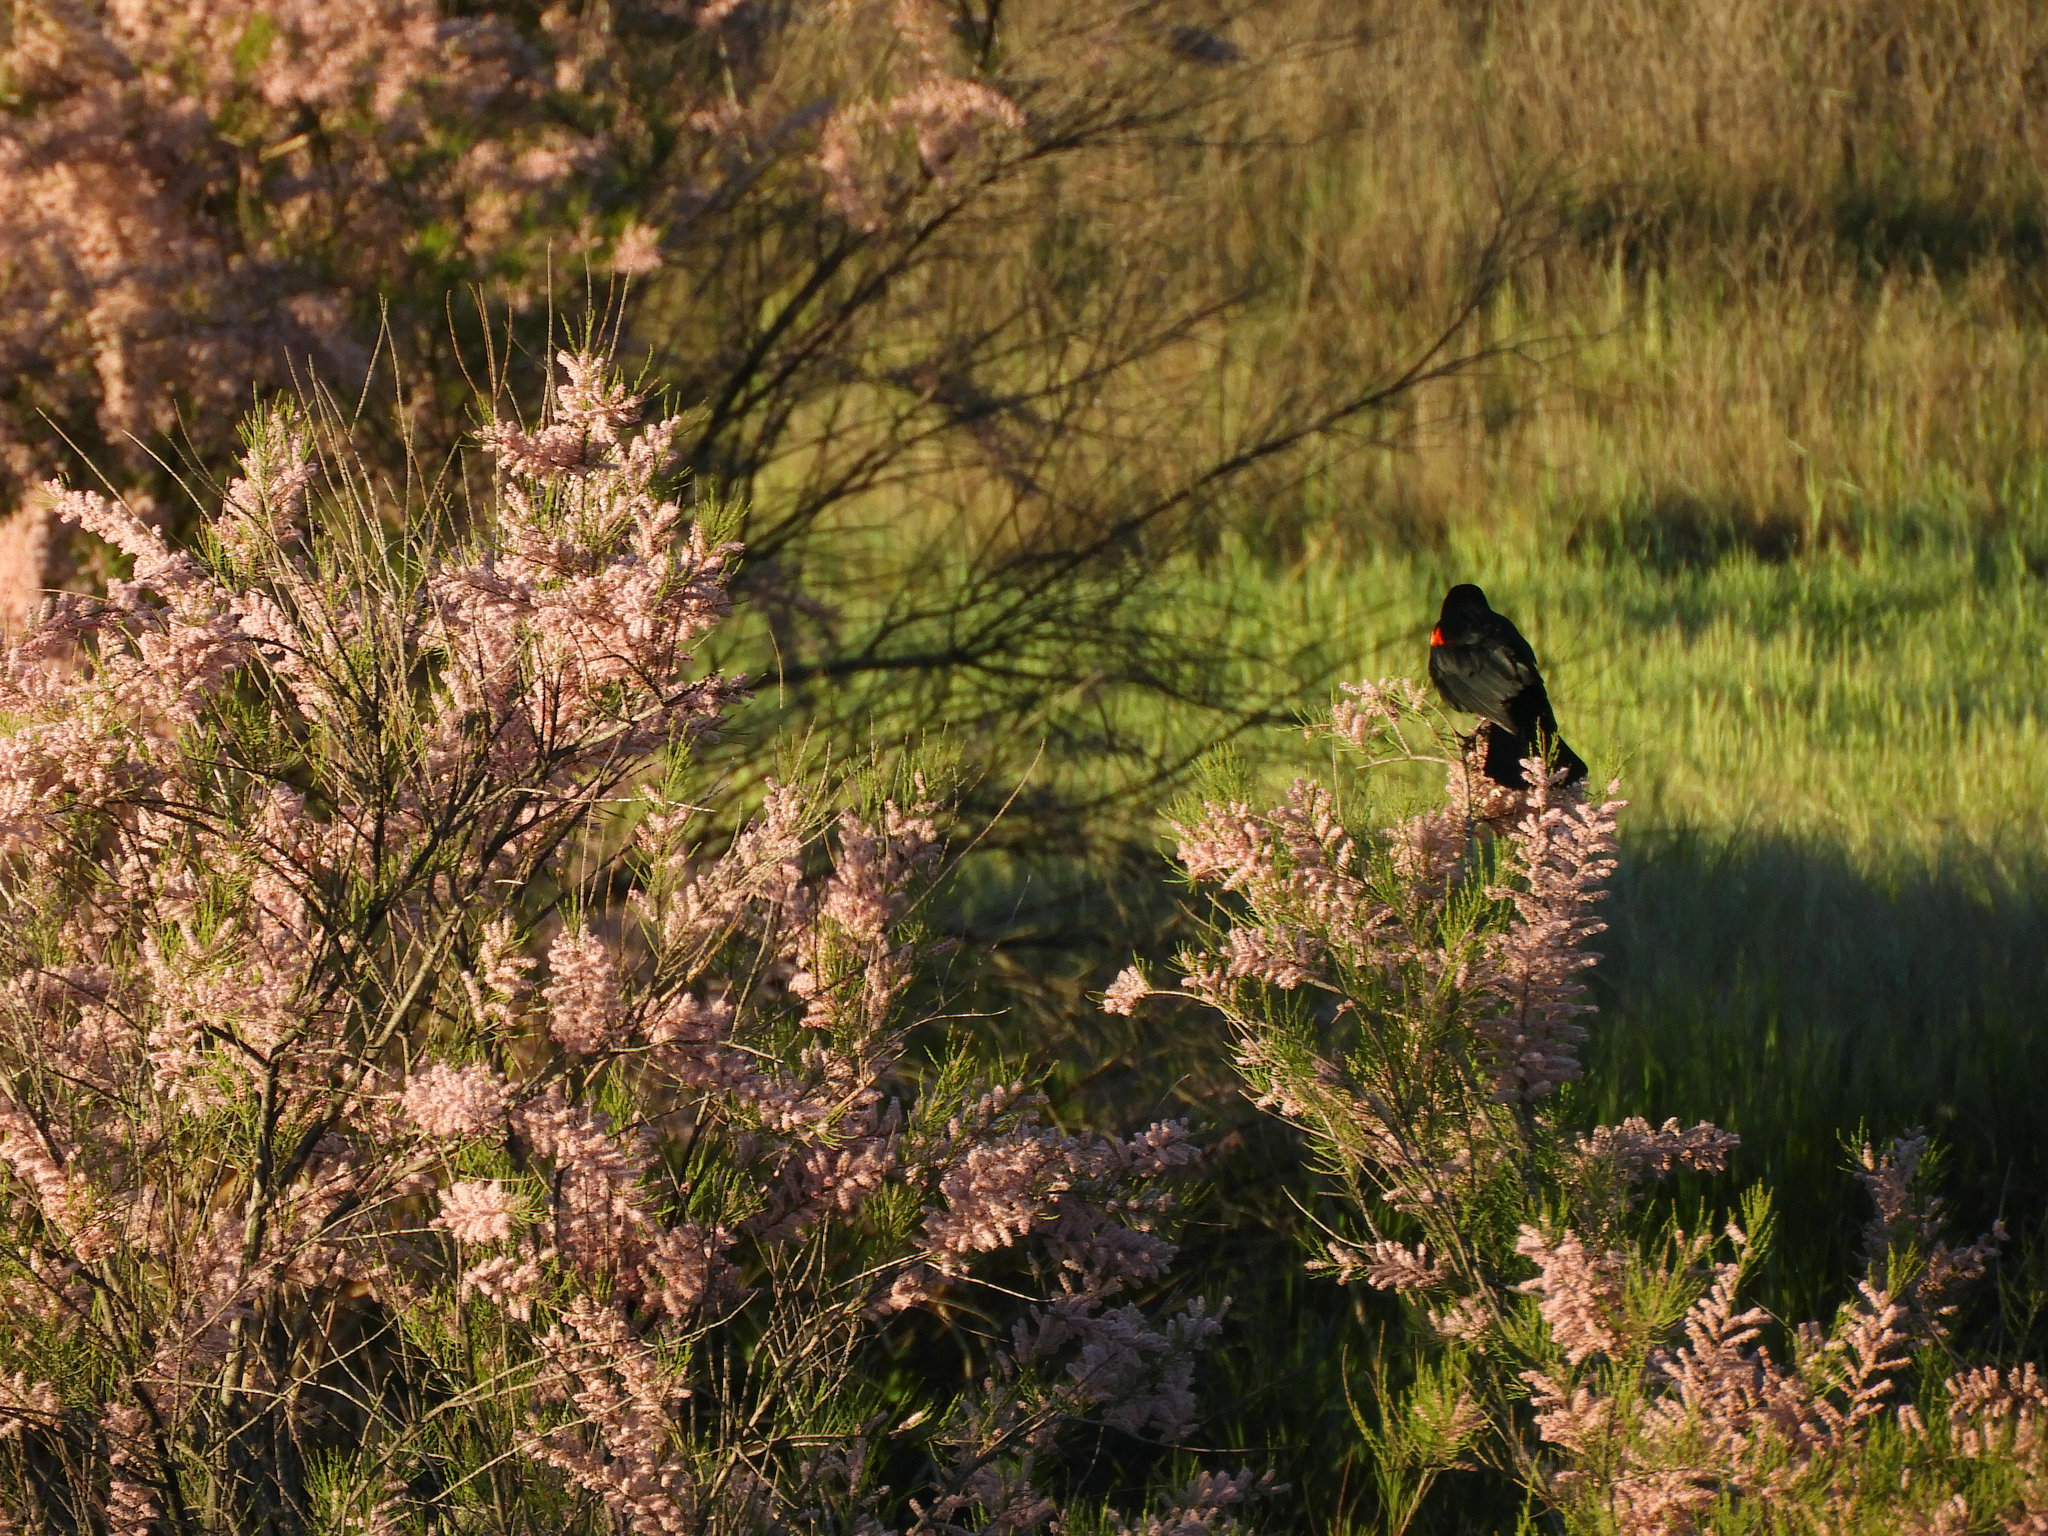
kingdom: Plantae
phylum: Tracheophyta
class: Magnoliopsida
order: Caryophyllales
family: Tamaricaceae
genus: Tamarix
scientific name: Tamarix parviflora
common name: Smallflower tamarisk
